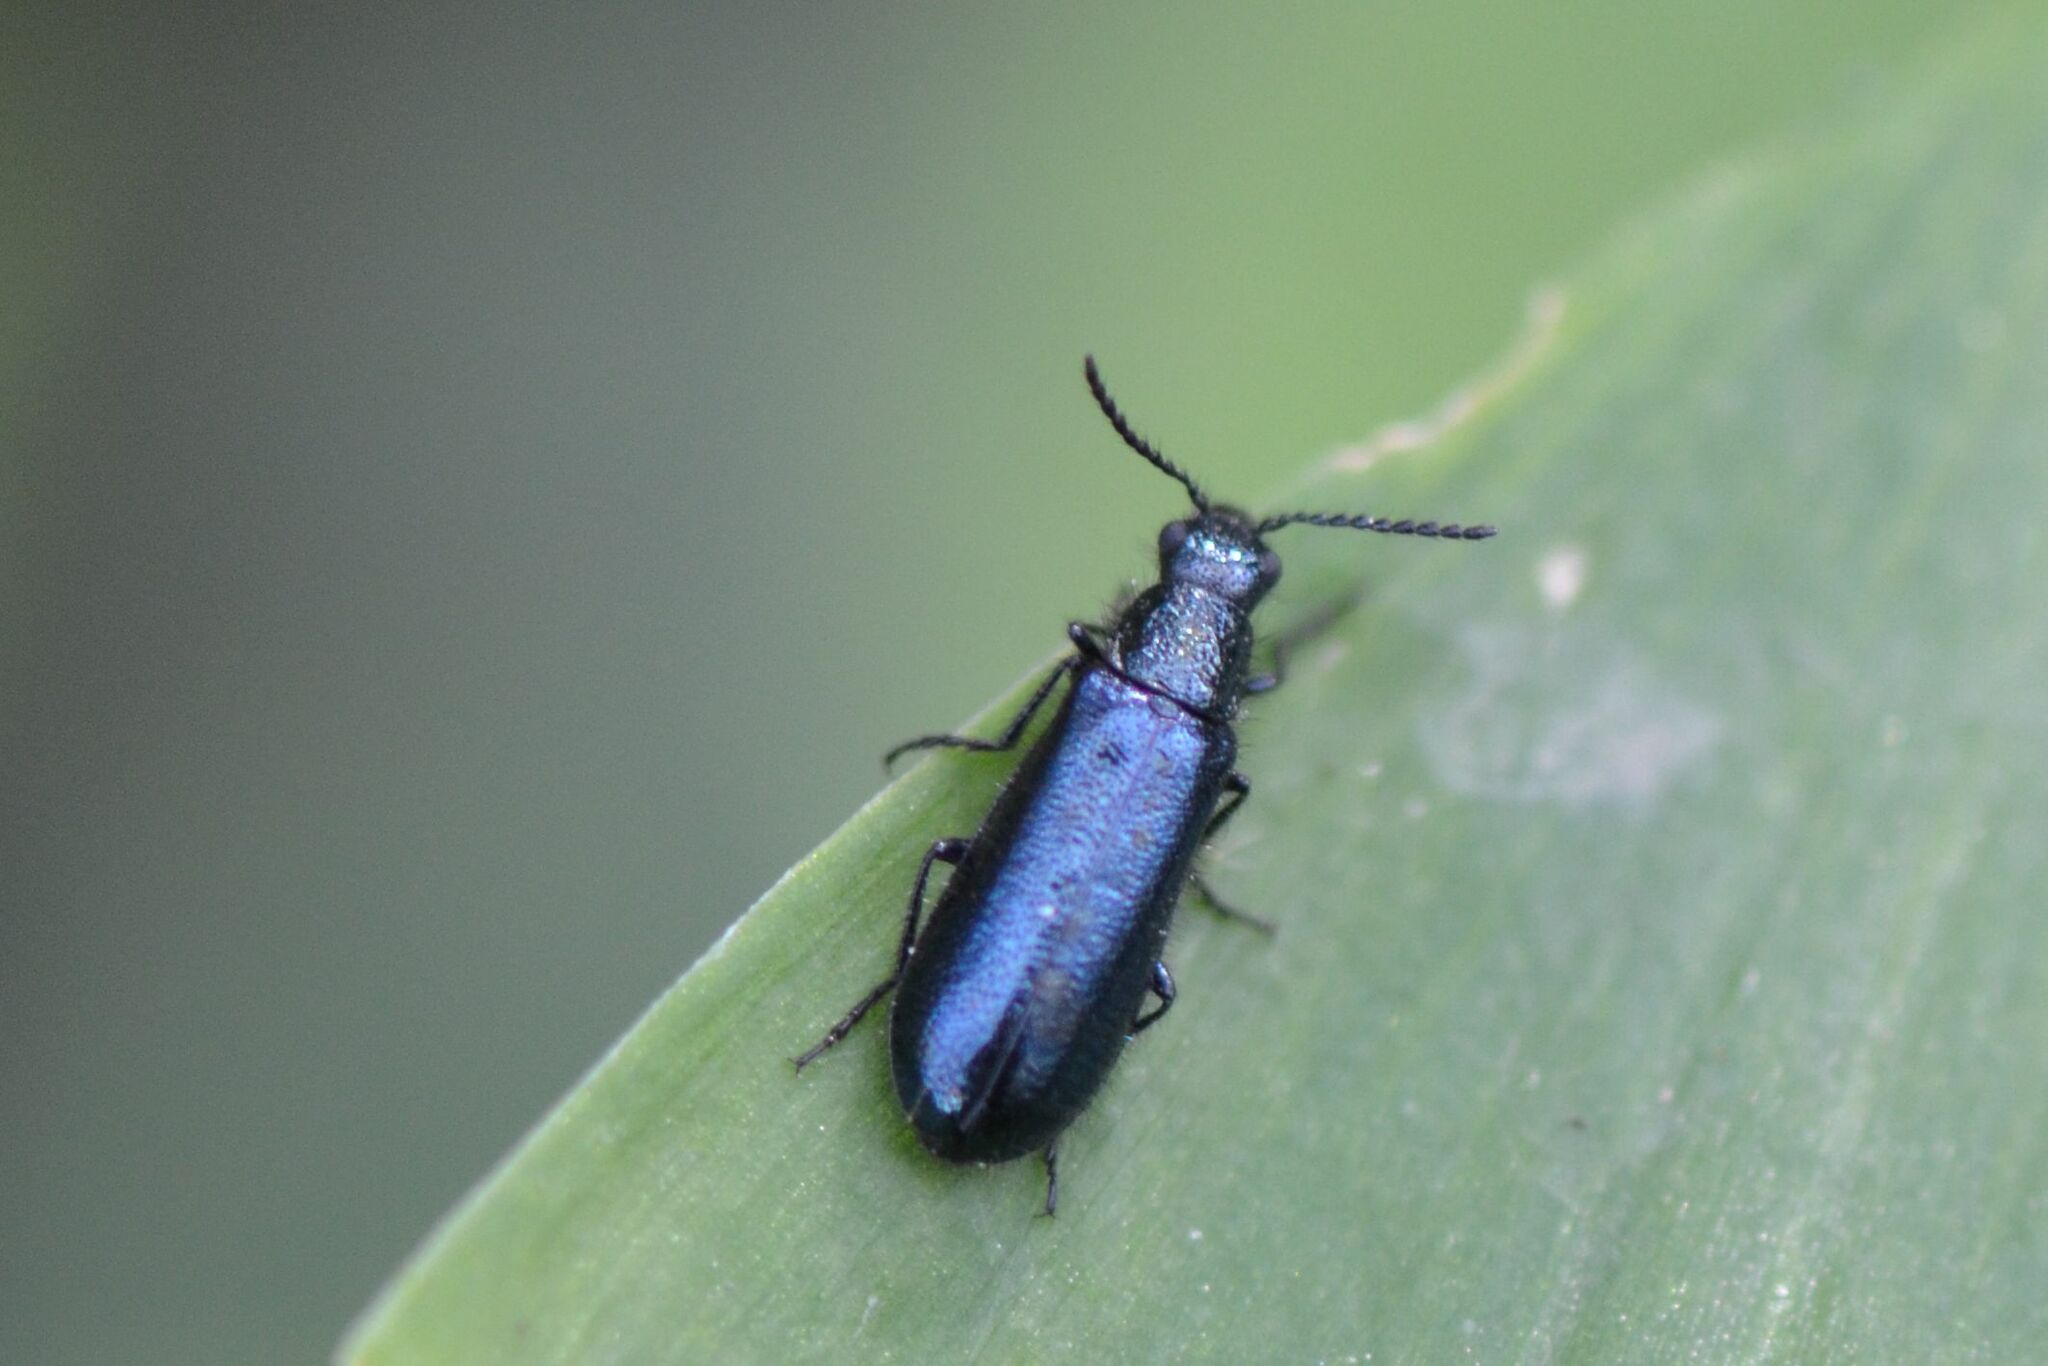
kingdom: Animalia
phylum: Arthropoda
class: Insecta
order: Coleoptera
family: Melyridae
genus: Dasytes
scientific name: Dasytes caeruleus
